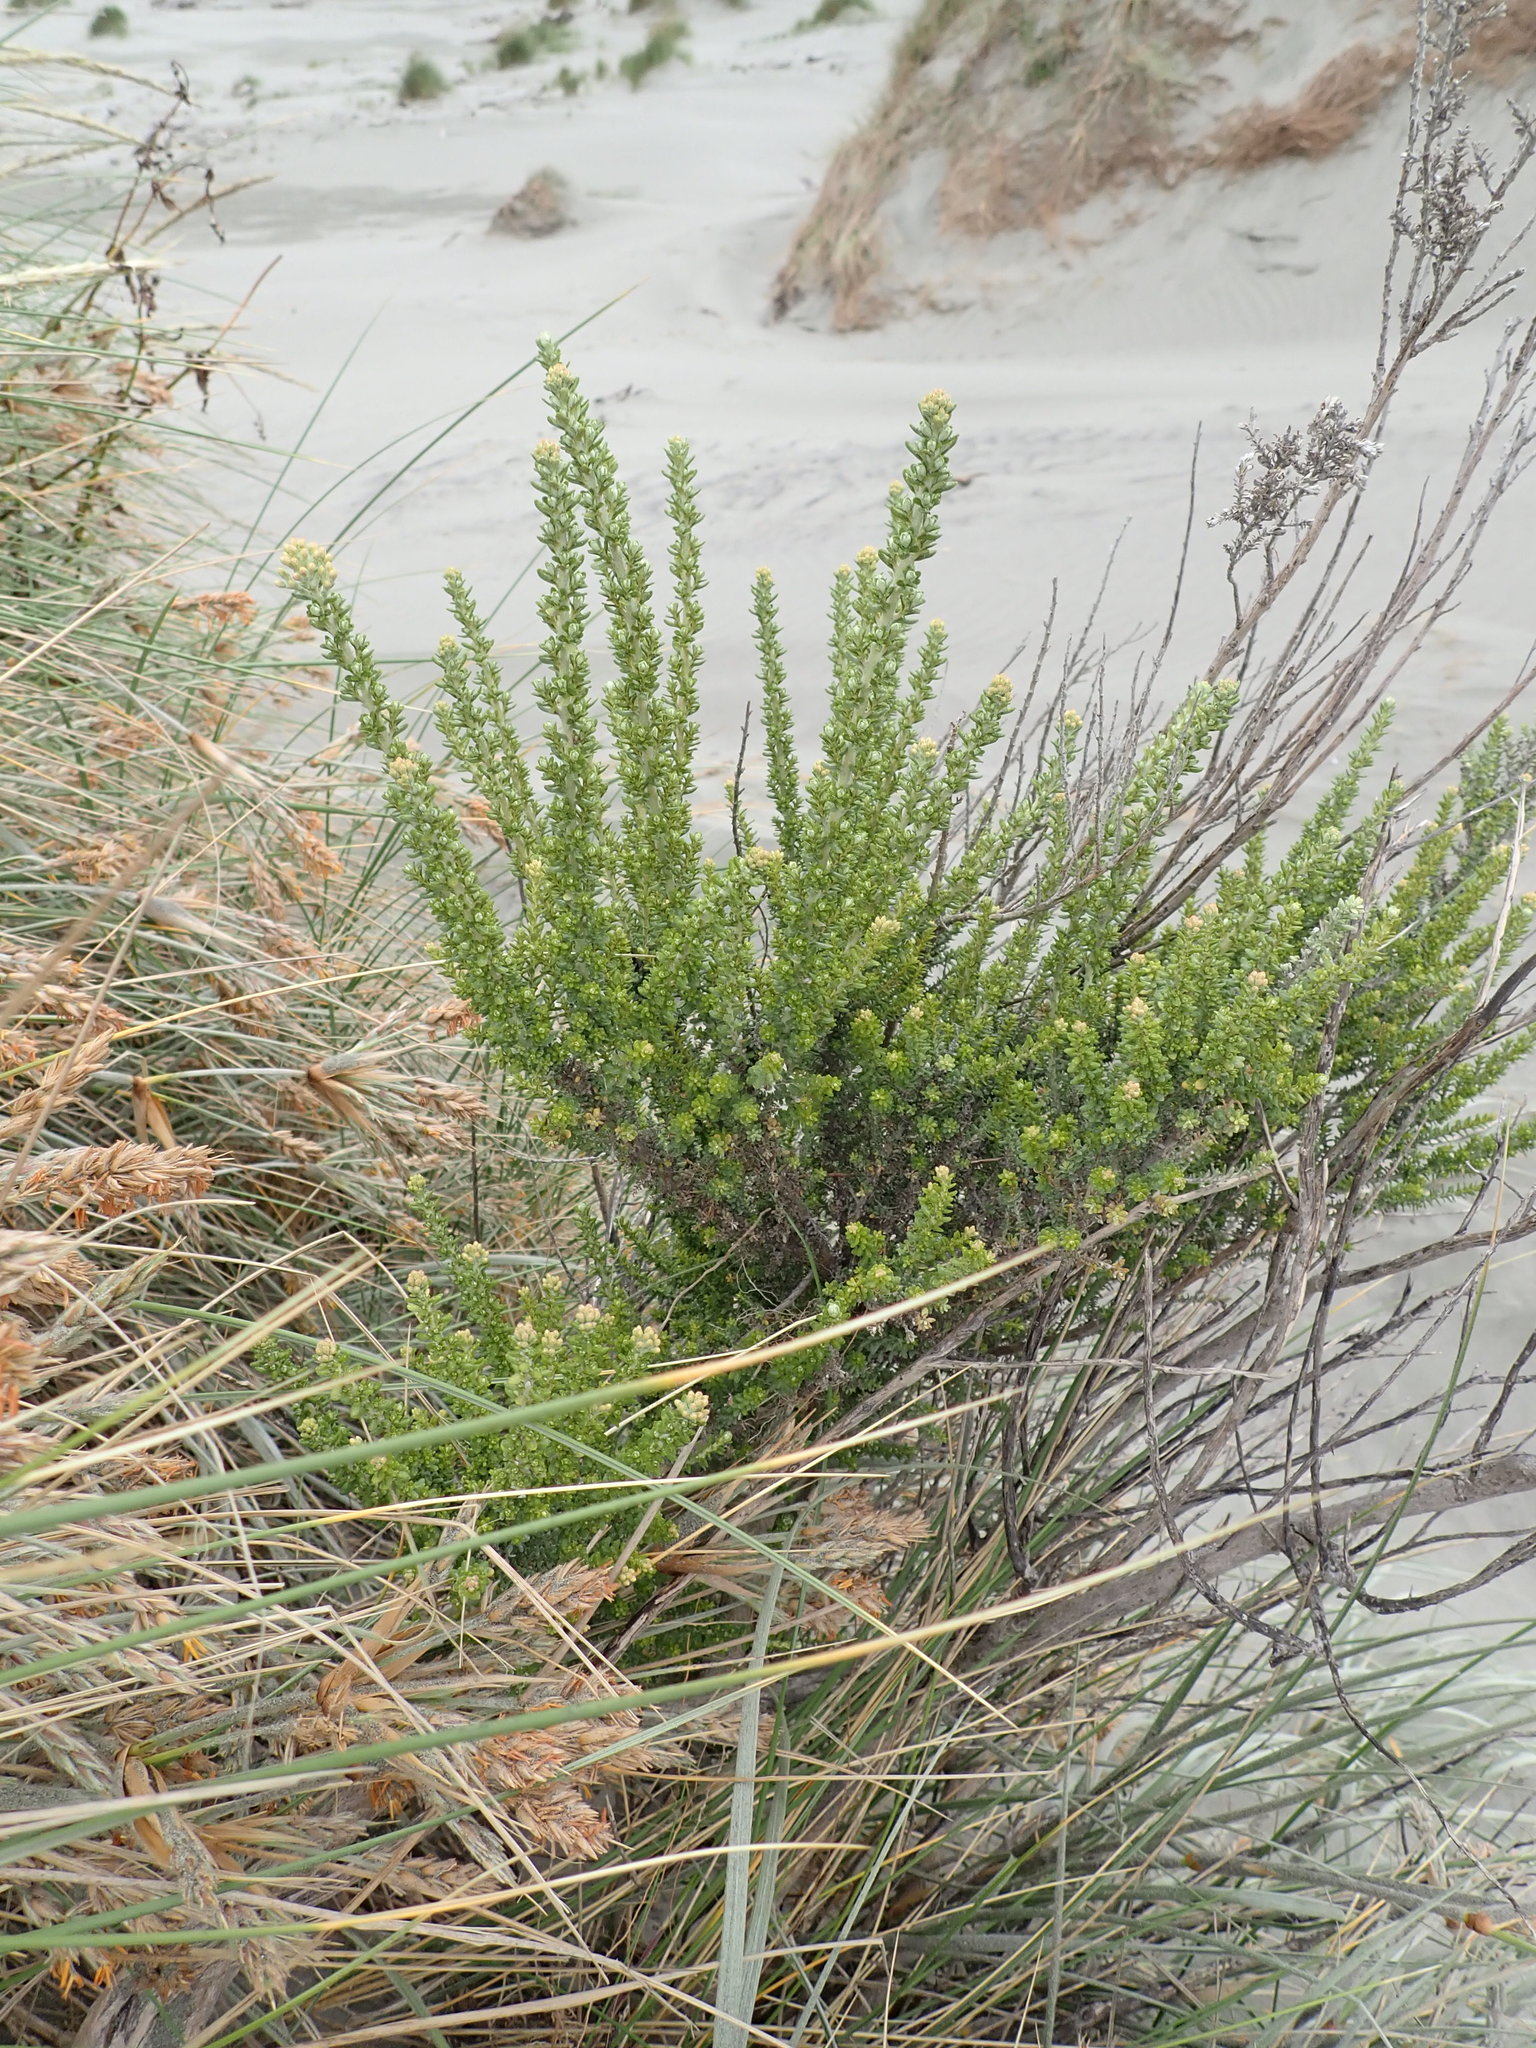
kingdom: Plantae
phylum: Tracheophyta
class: Magnoliopsida
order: Asterales
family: Asteraceae
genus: Ozothamnus
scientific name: Ozothamnus leptophyllus
